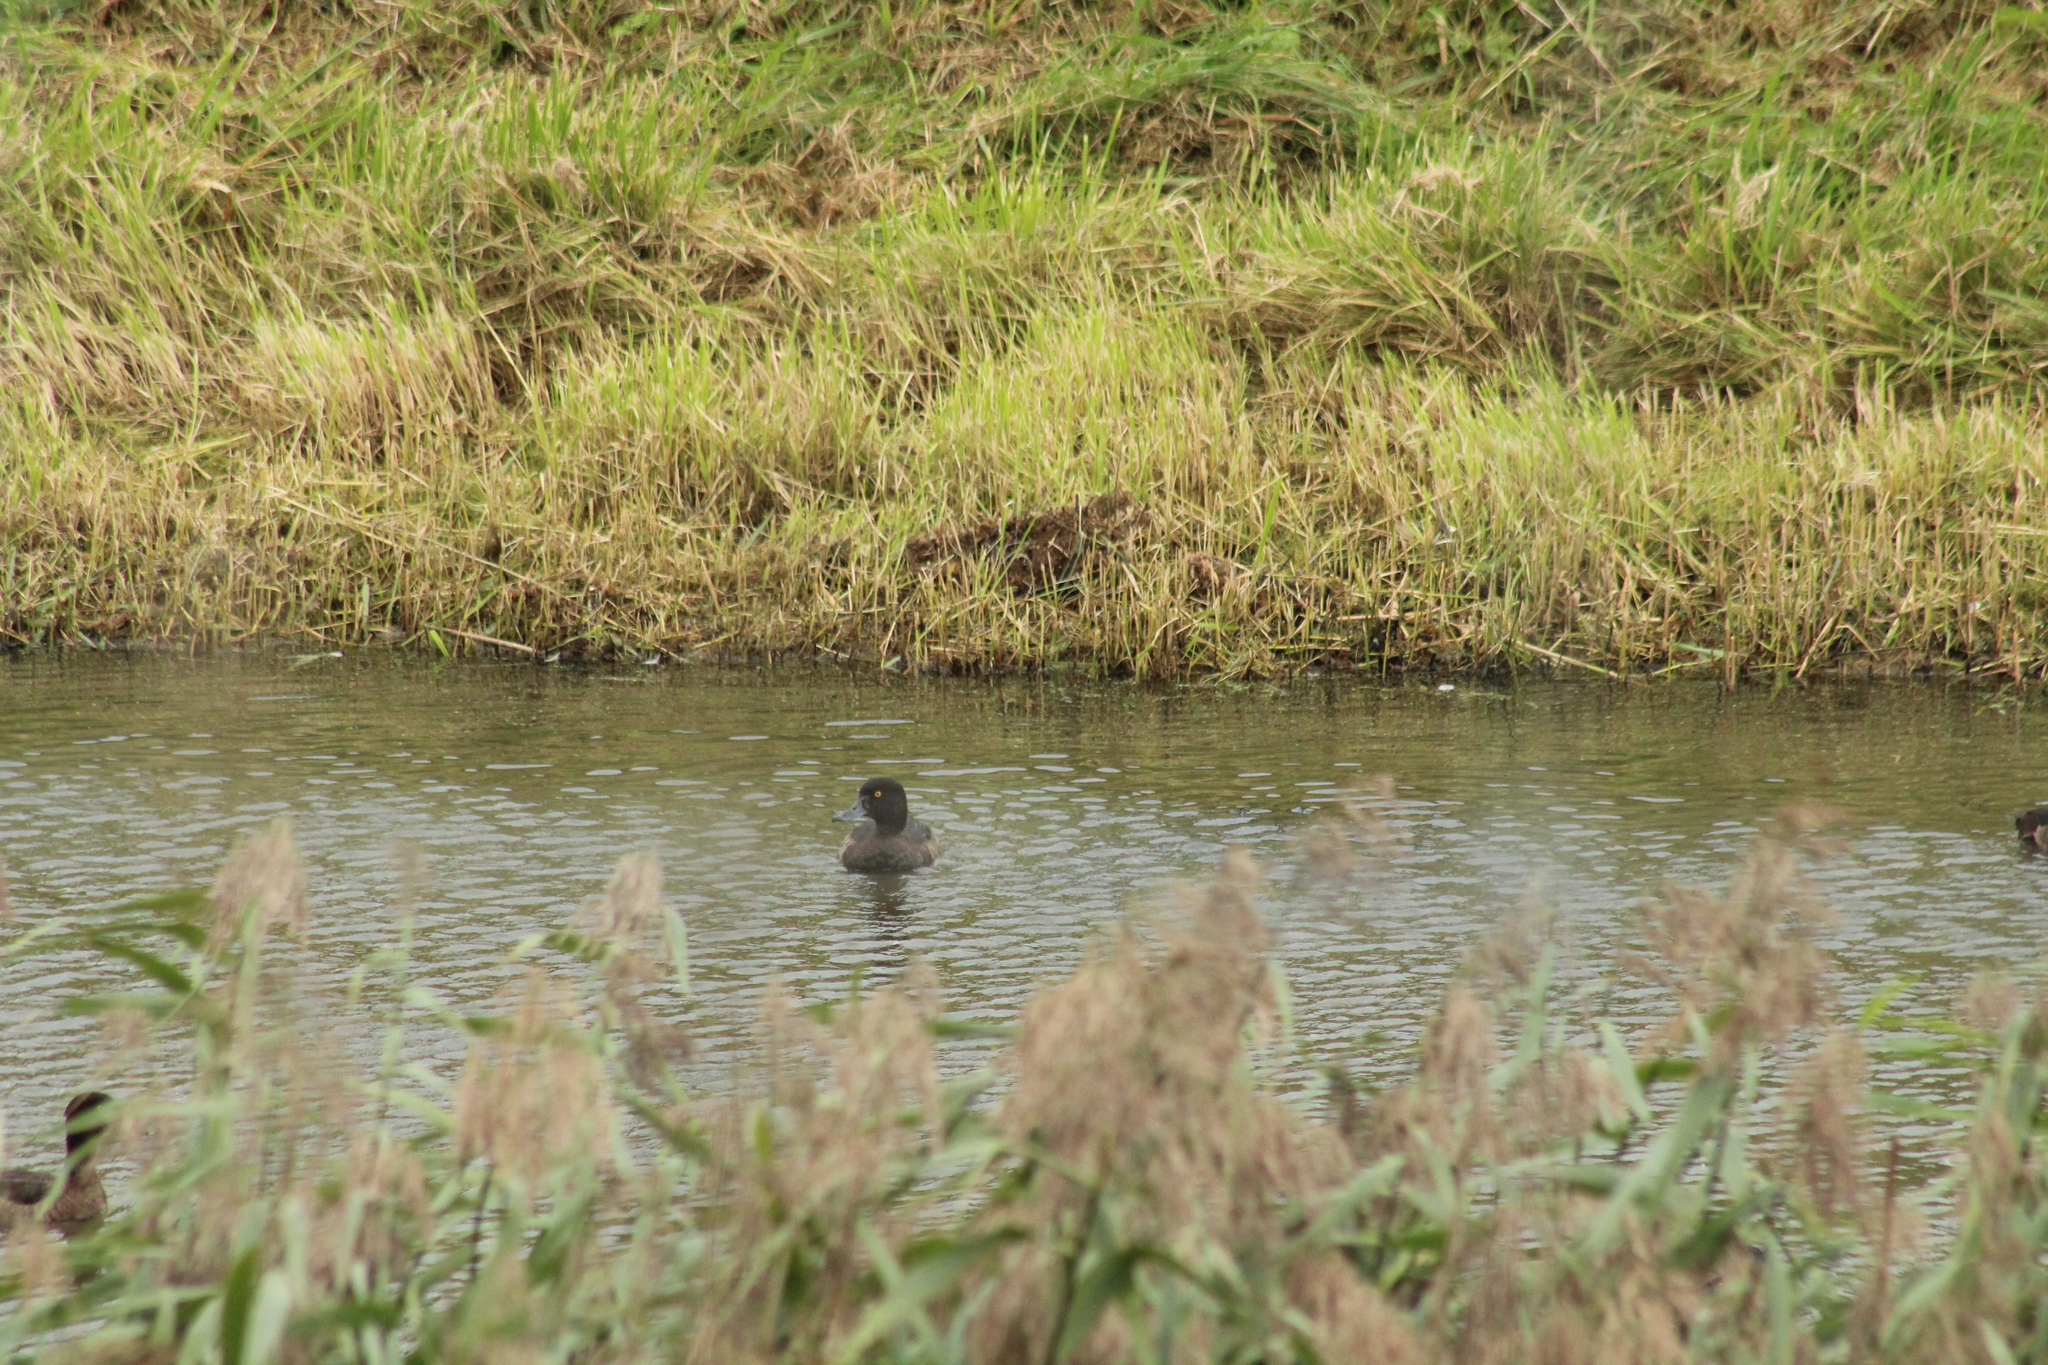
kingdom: Animalia
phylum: Chordata
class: Aves
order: Anseriformes
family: Anatidae
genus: Aythya
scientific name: Aythya fuligula
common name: Tufted duck
